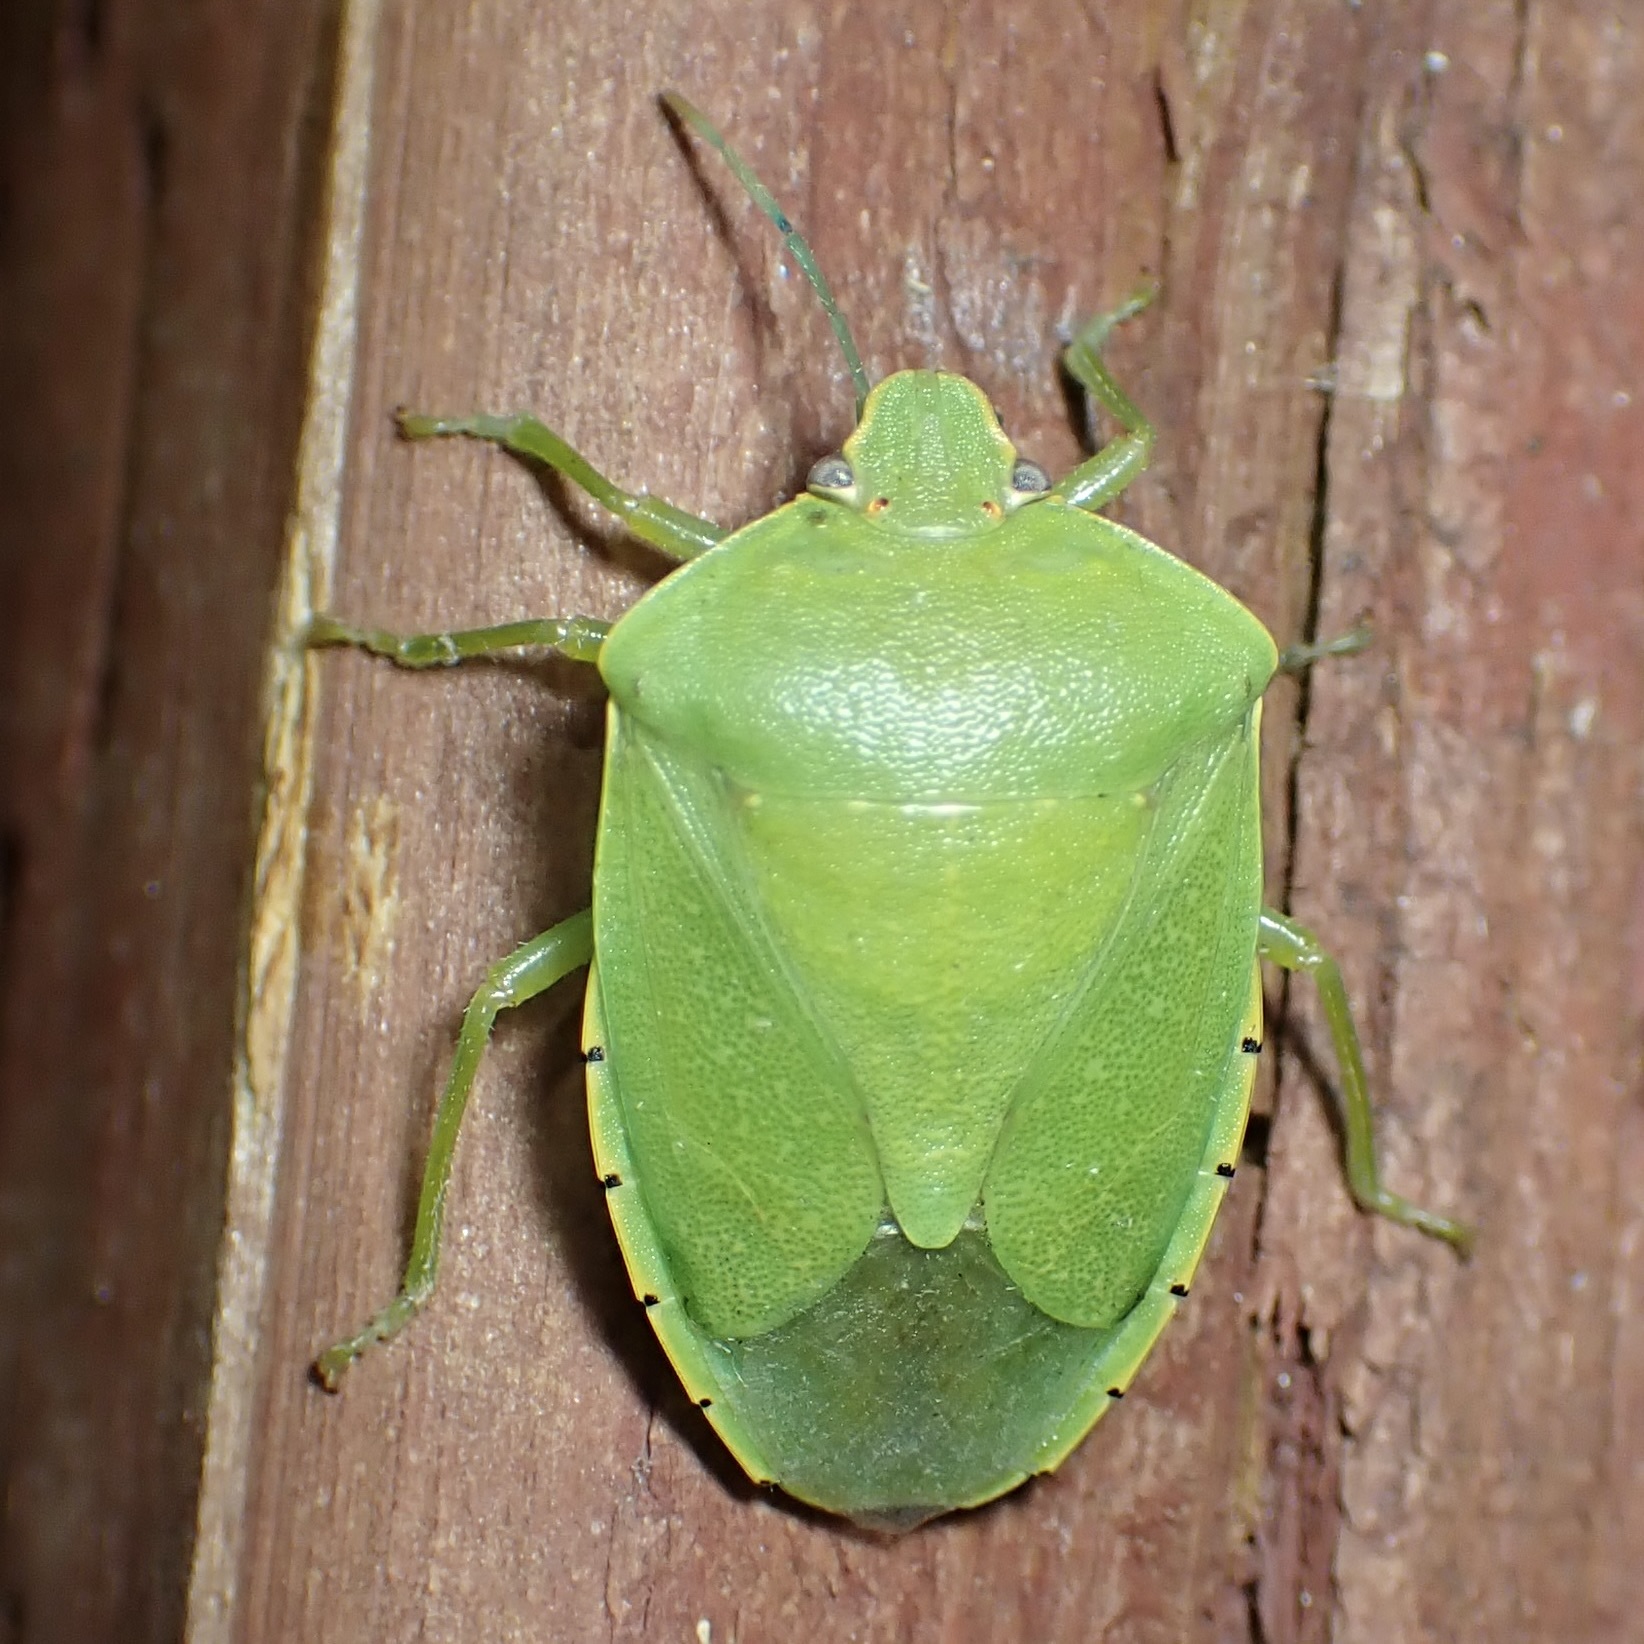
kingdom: Animalia
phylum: Arthropoda
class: Insecta
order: Hemiptera
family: Pentatomidae
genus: Chinavia
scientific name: Chinavia hilaris
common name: Green stink bug
